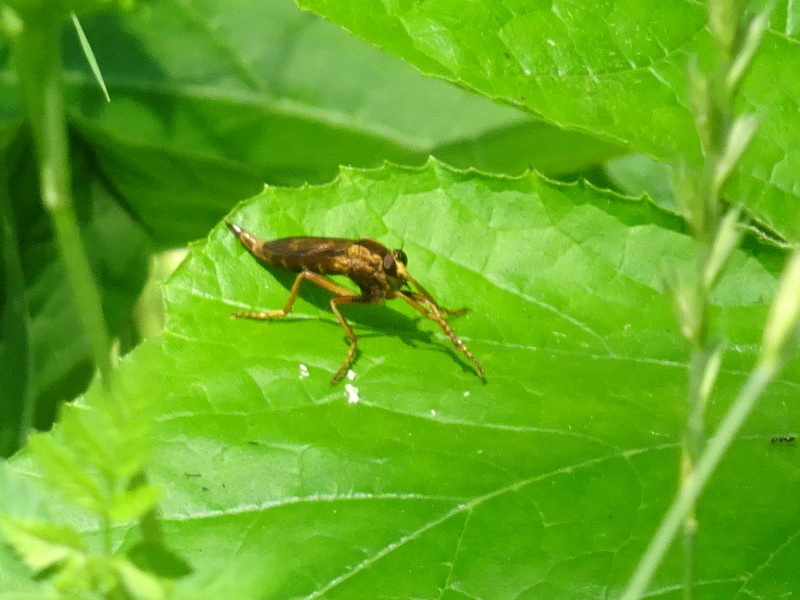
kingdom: Animalia
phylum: Arthropoda
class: Insecta
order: Diptera
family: Asilidae
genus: Asilus
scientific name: Asilus sericeus
